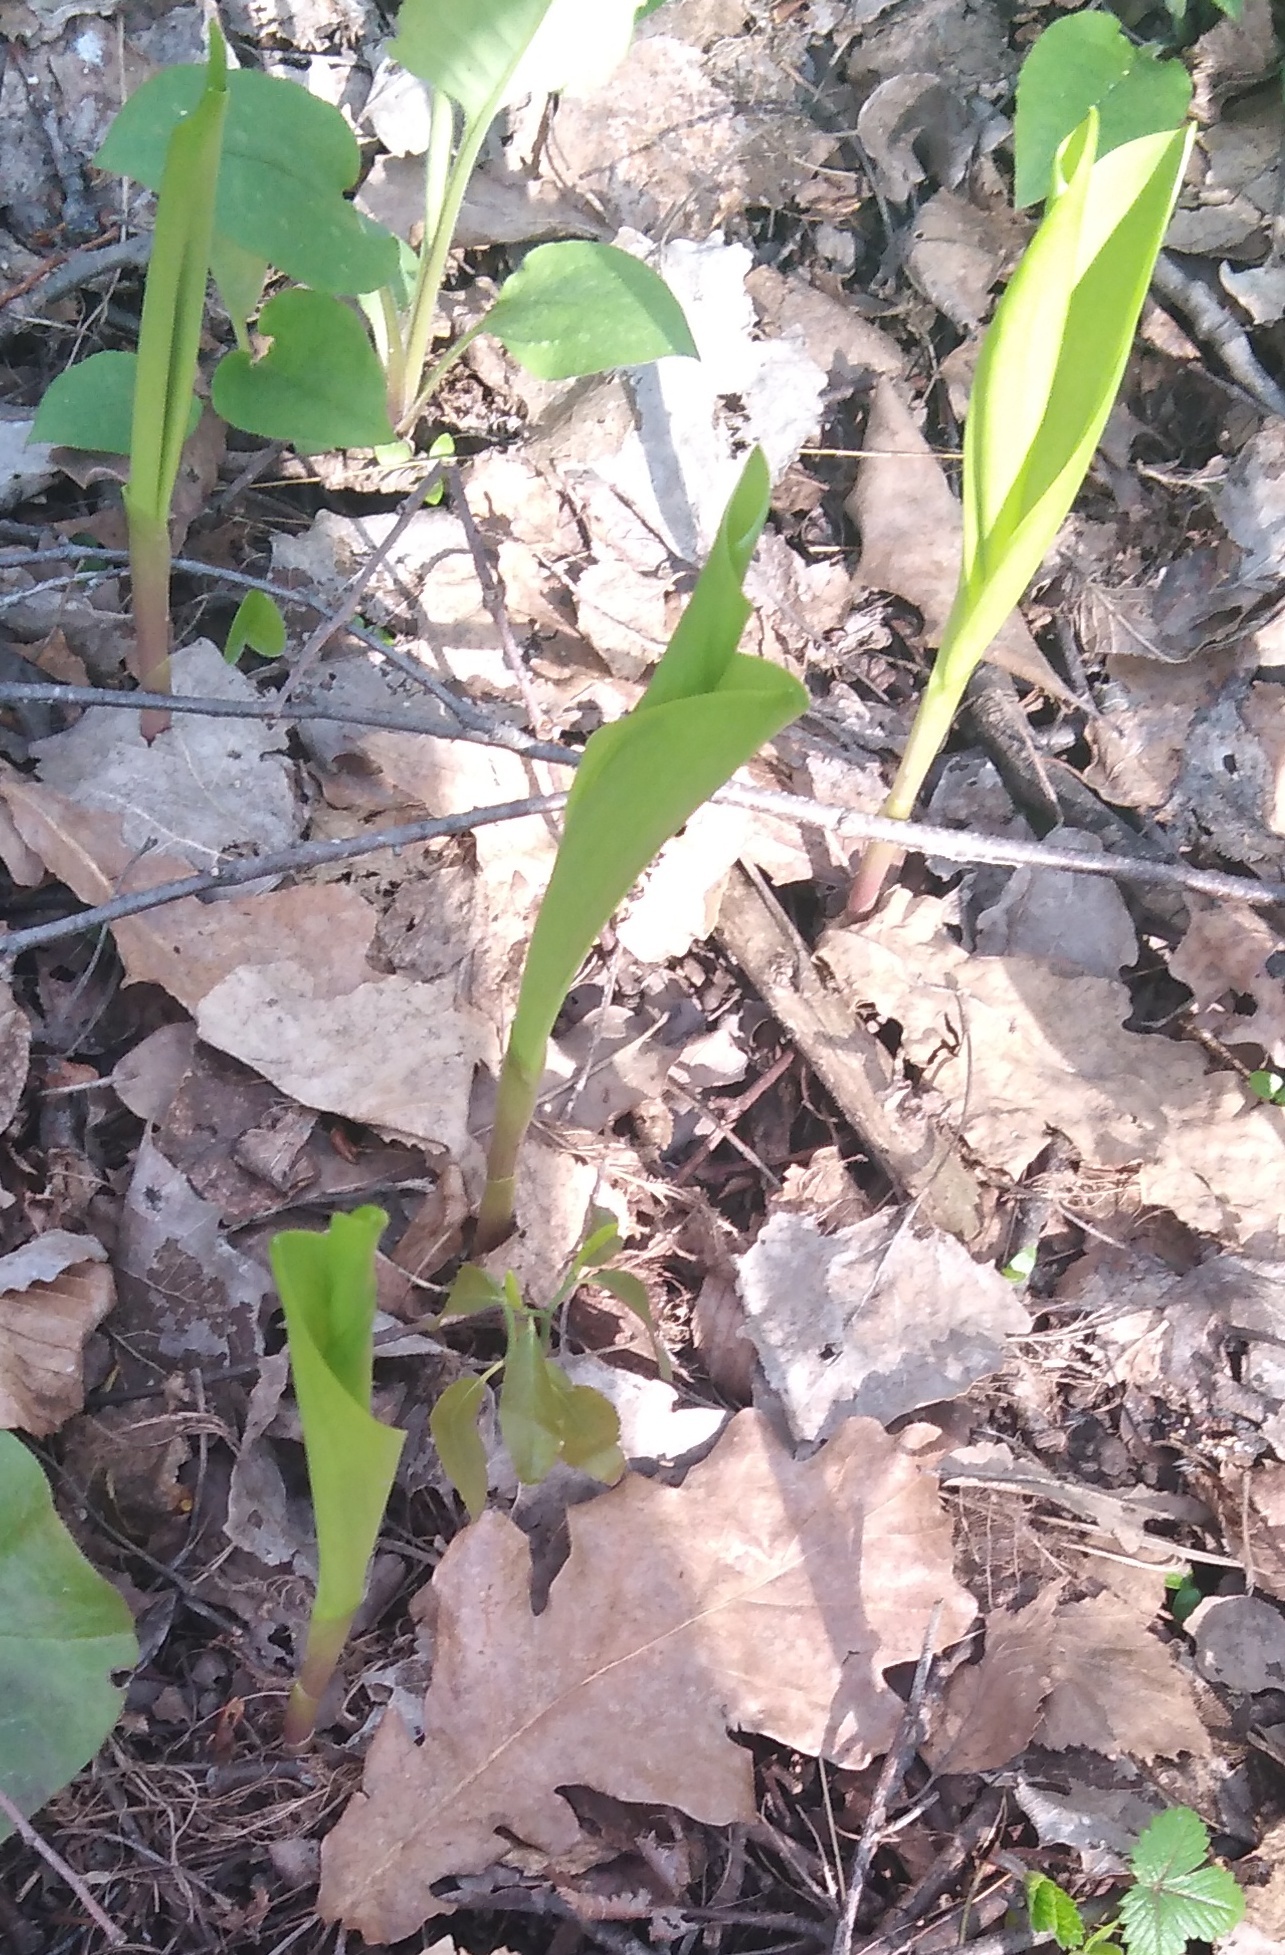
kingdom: Plantae
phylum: Tracheophyta
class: Liliopsida
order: Asparagales
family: Asparagaceae
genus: Convallaria
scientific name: Convallaria majalis
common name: Lily-of-the-valley
